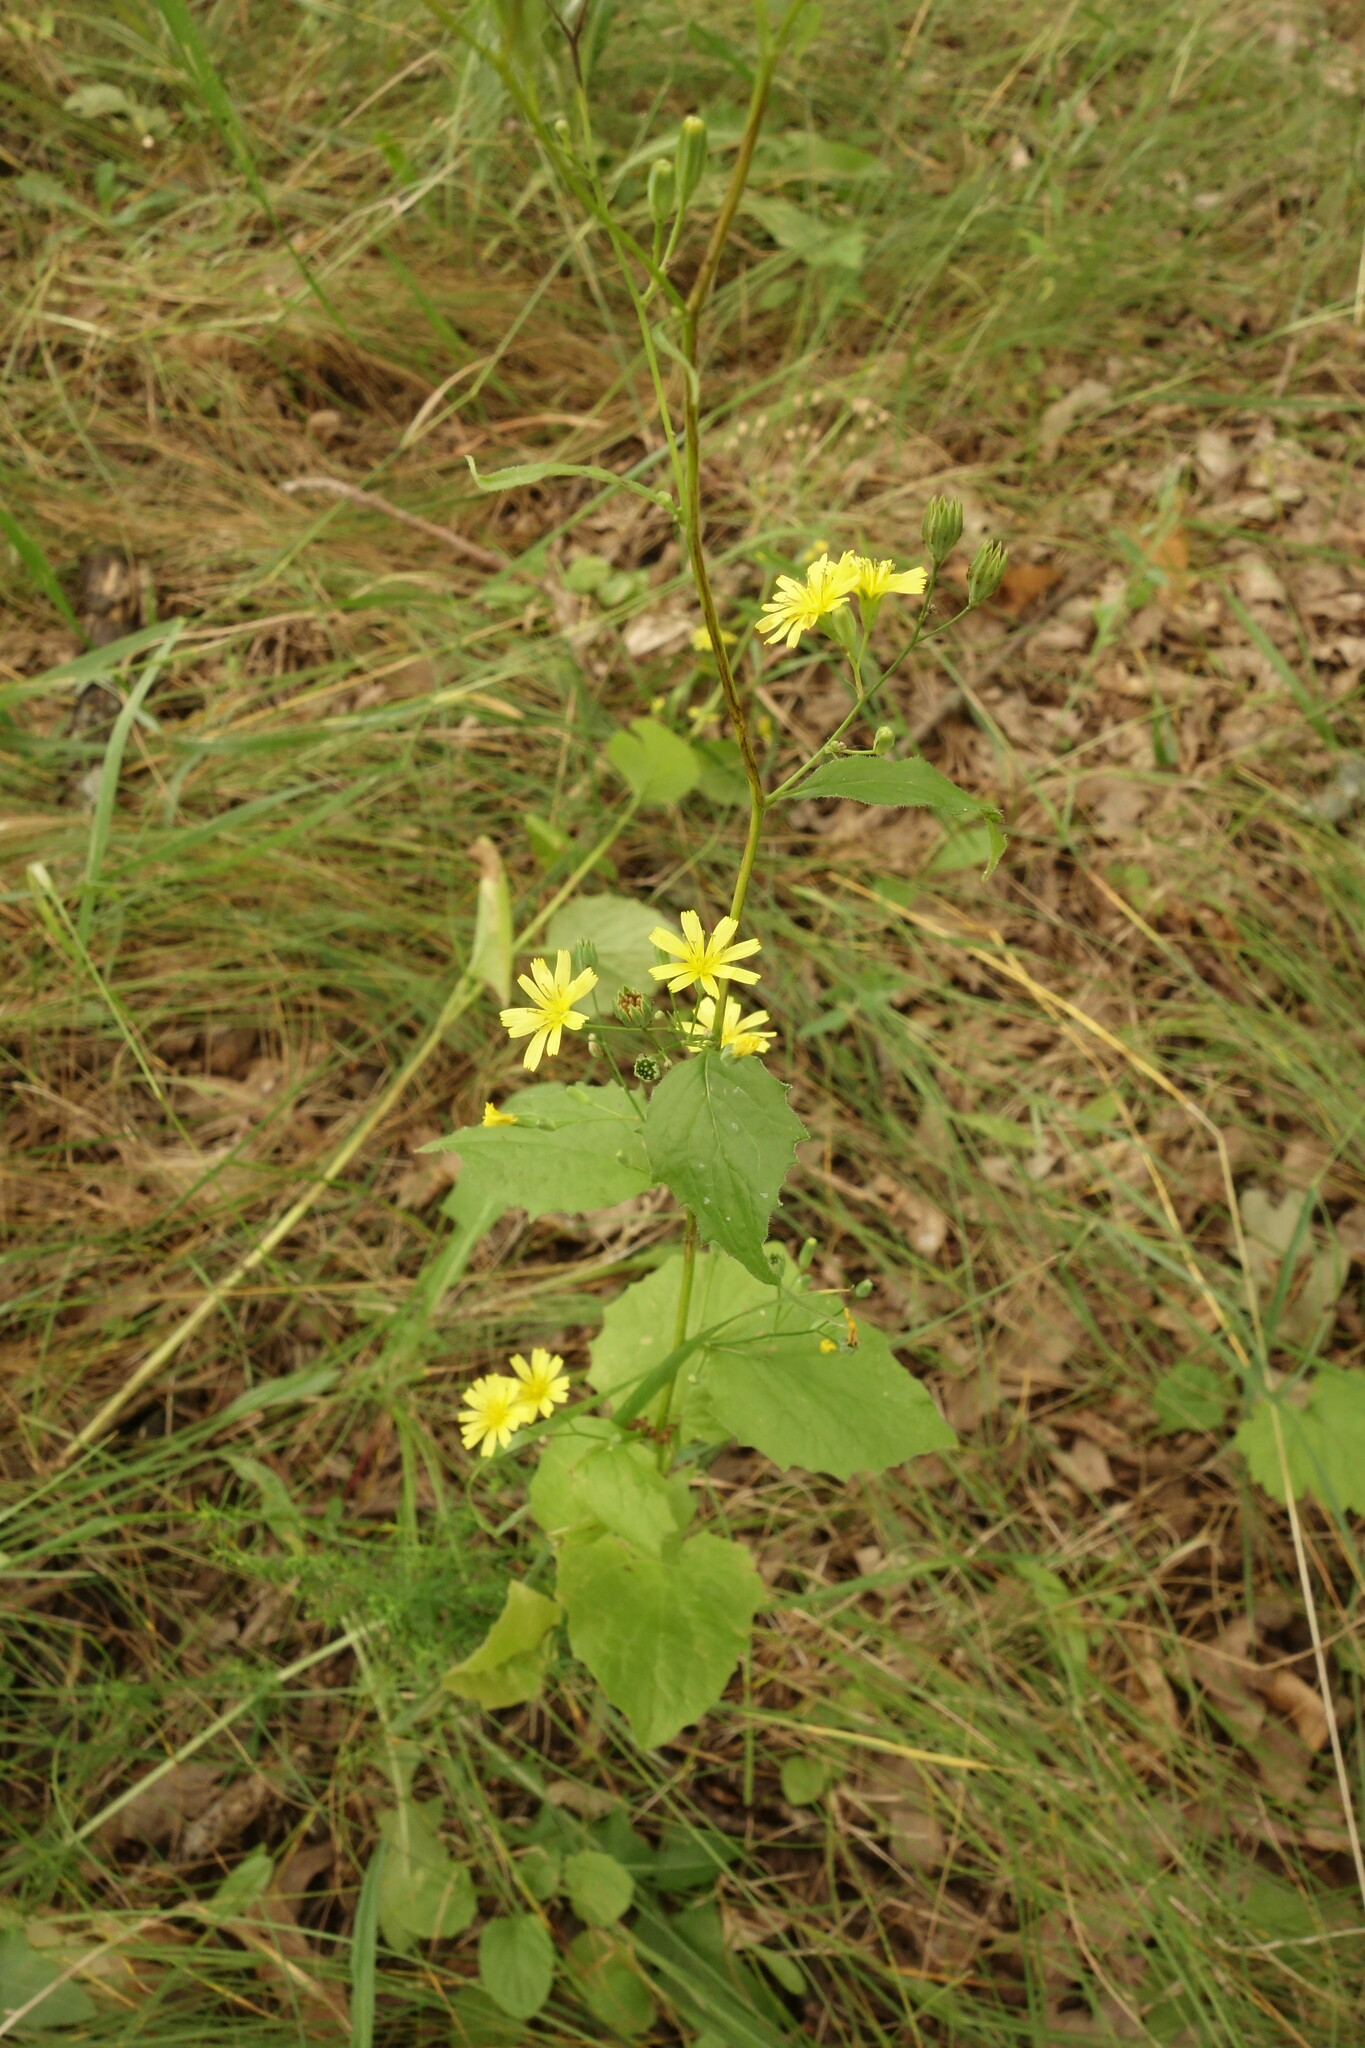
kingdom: Plantae
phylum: Tracheophyta
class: Magnoliopsida
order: Asterales
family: Asteraceae
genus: Lapsana
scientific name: Lapsana communis
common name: Nipplewort
